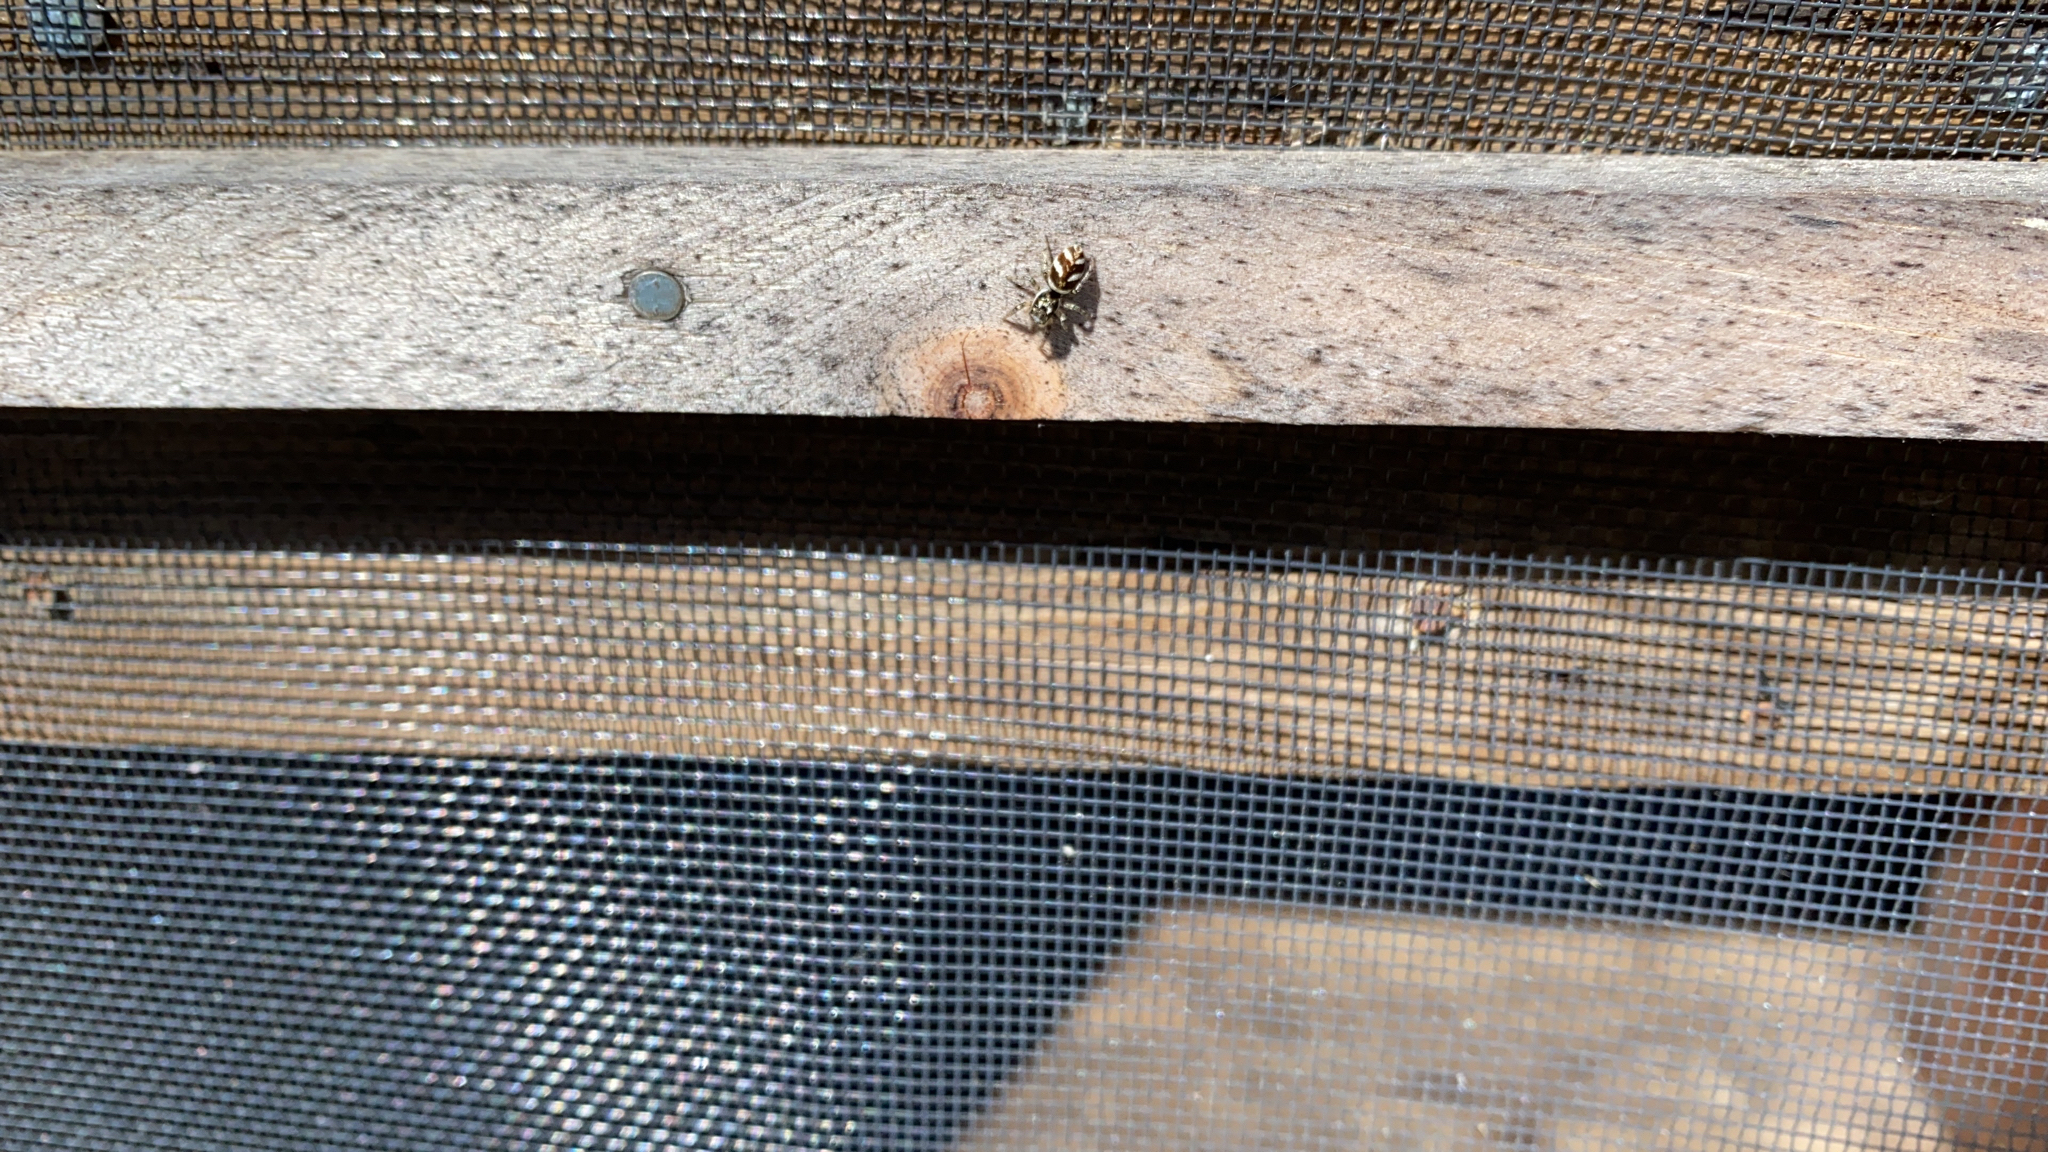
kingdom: Animalia
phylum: Arthropoda
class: Arachnida
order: Araneae
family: Salticidae
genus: Salticus
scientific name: Salticus scenicus
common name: Zebra jumper
